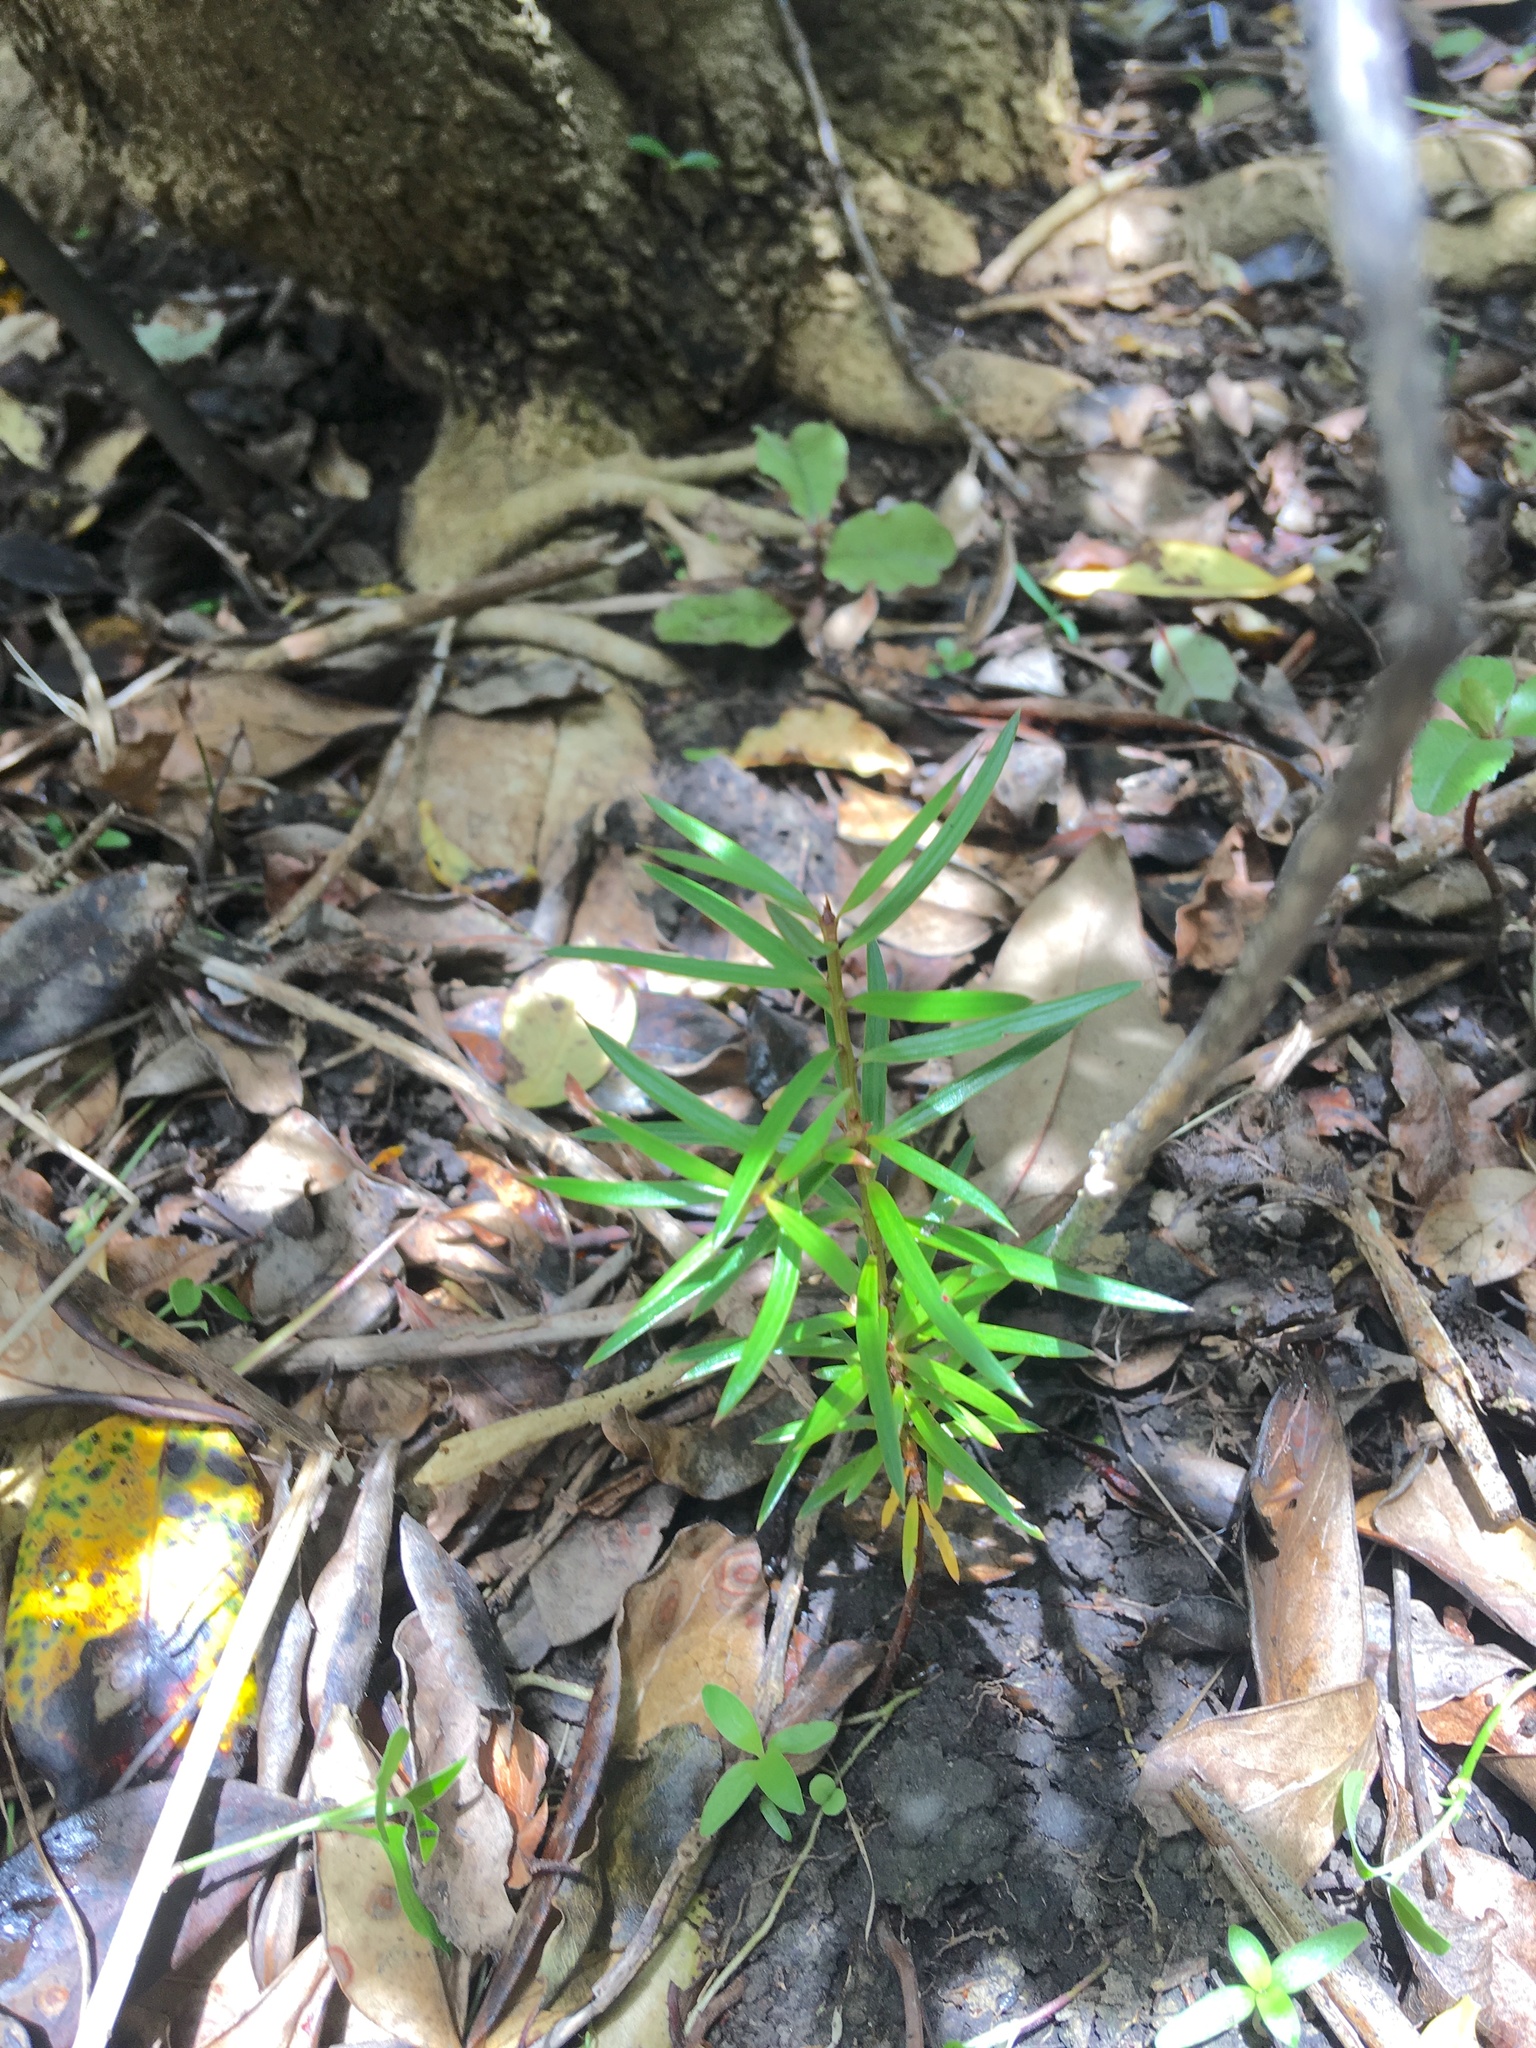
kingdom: Plantae
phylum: Tracheophyta
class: Pinopsida
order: Pinales
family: Podocarpaceae
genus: Podocarpus
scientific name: Podocarpus totara
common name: Totara
